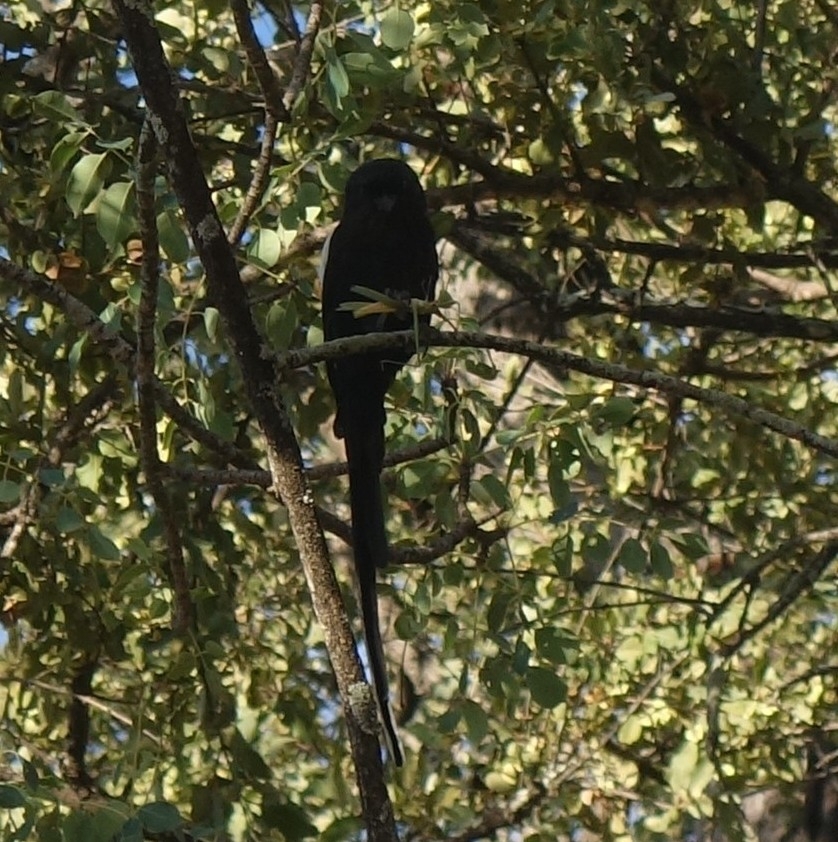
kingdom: Animalia
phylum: Chordata
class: Aves
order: Passeriformes
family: Laniidae
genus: Urolestes
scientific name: Urolestes melanoleucus
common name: Magpie shrike
